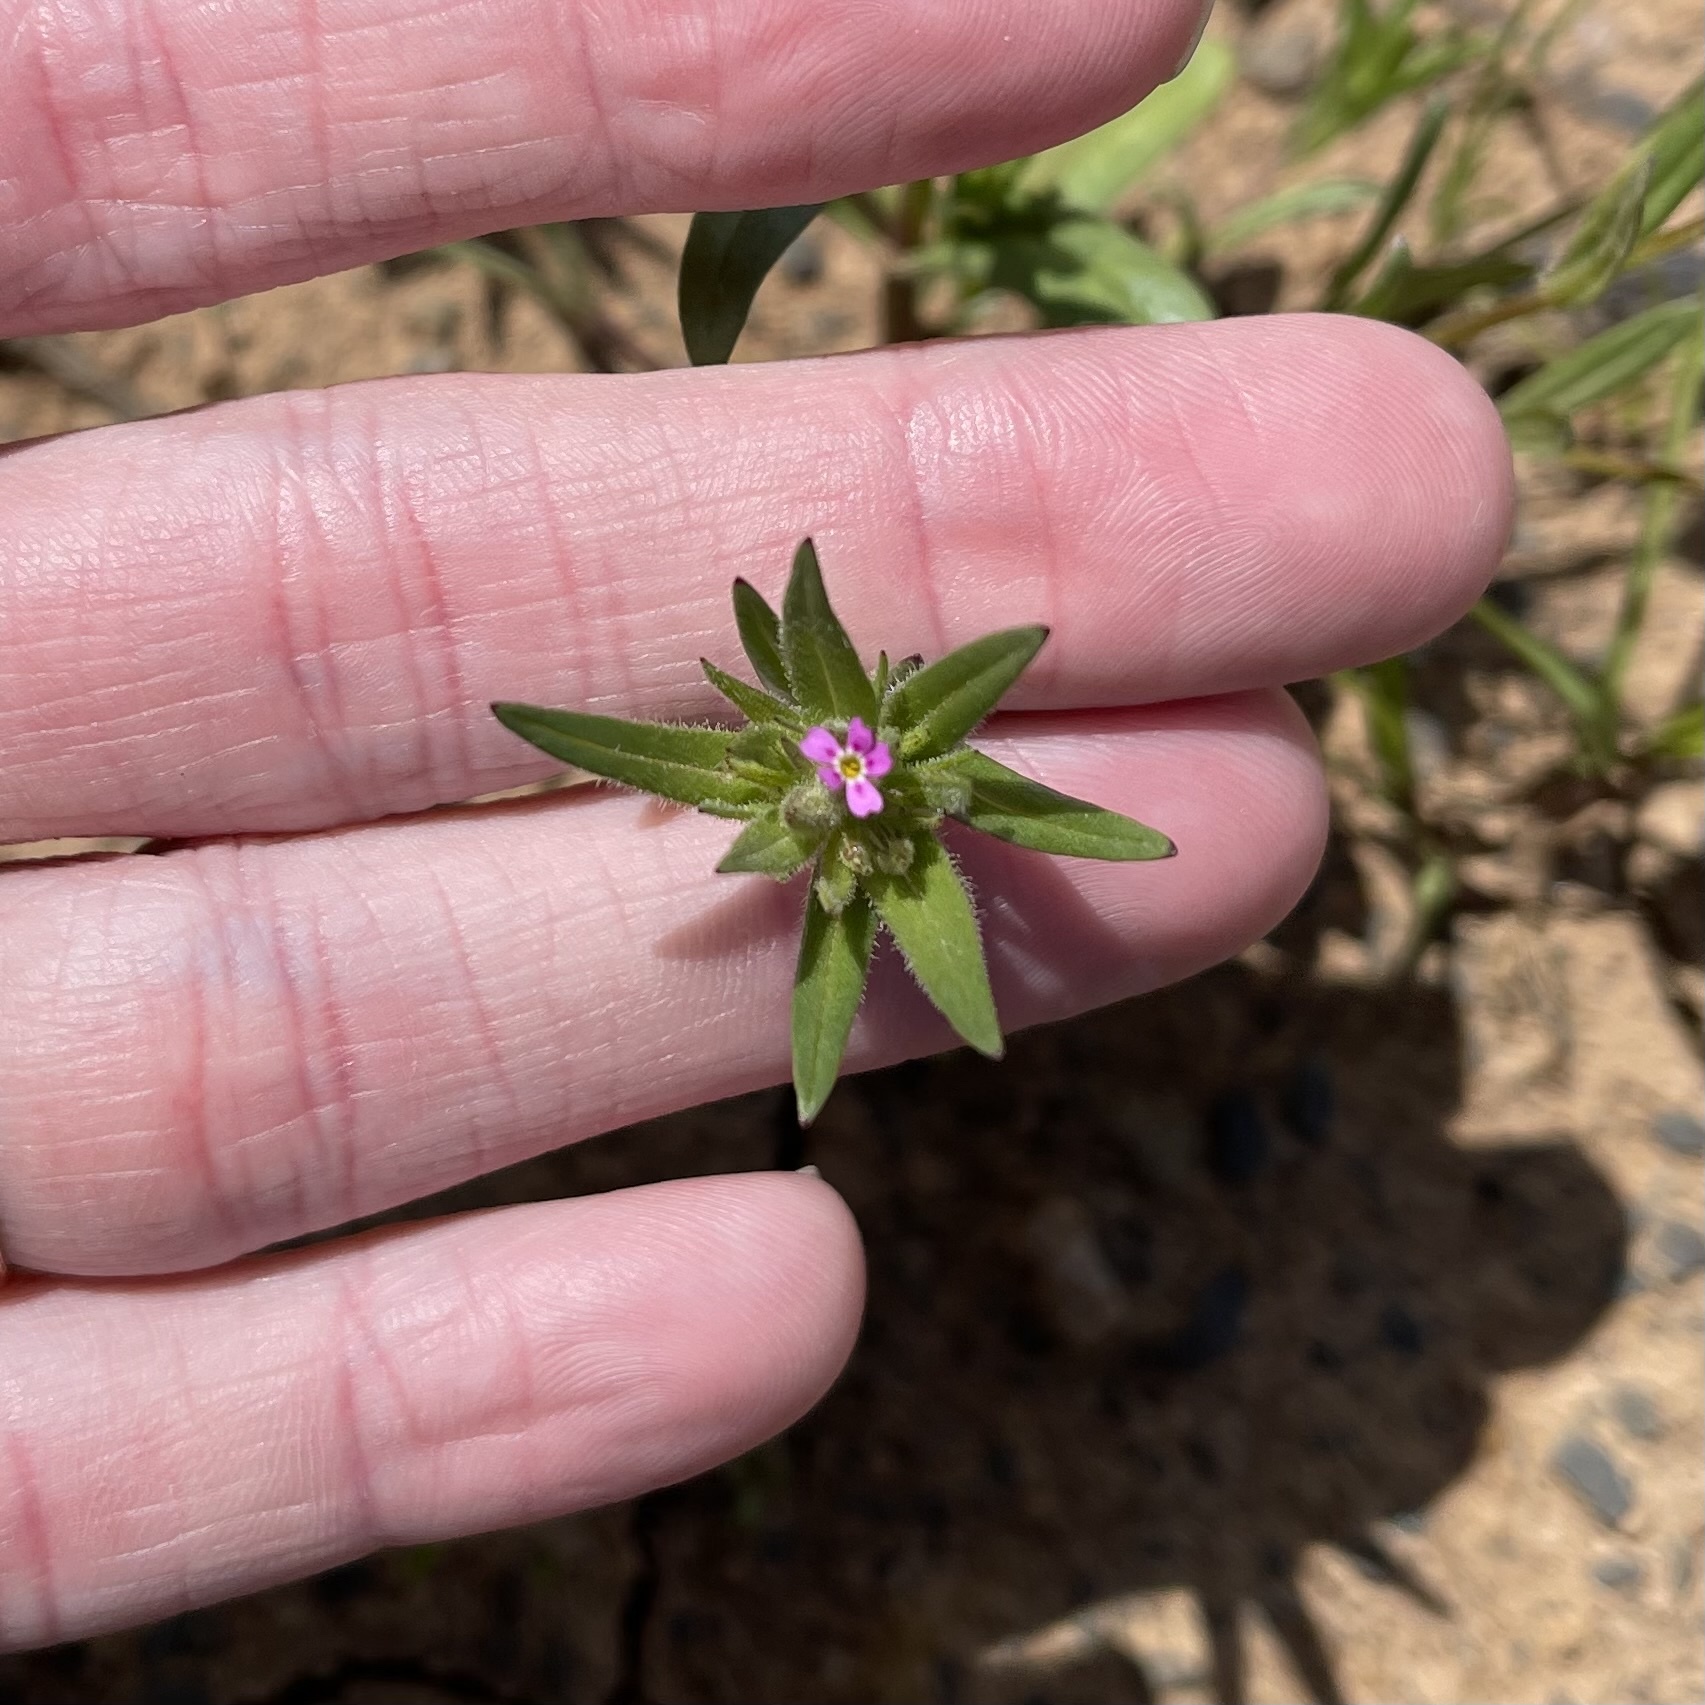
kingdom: Plantae
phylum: Tracheophyta
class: Magnoliopsida
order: Ericales
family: Polemoniaceae
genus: Phlox
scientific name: Phlox gracilis
